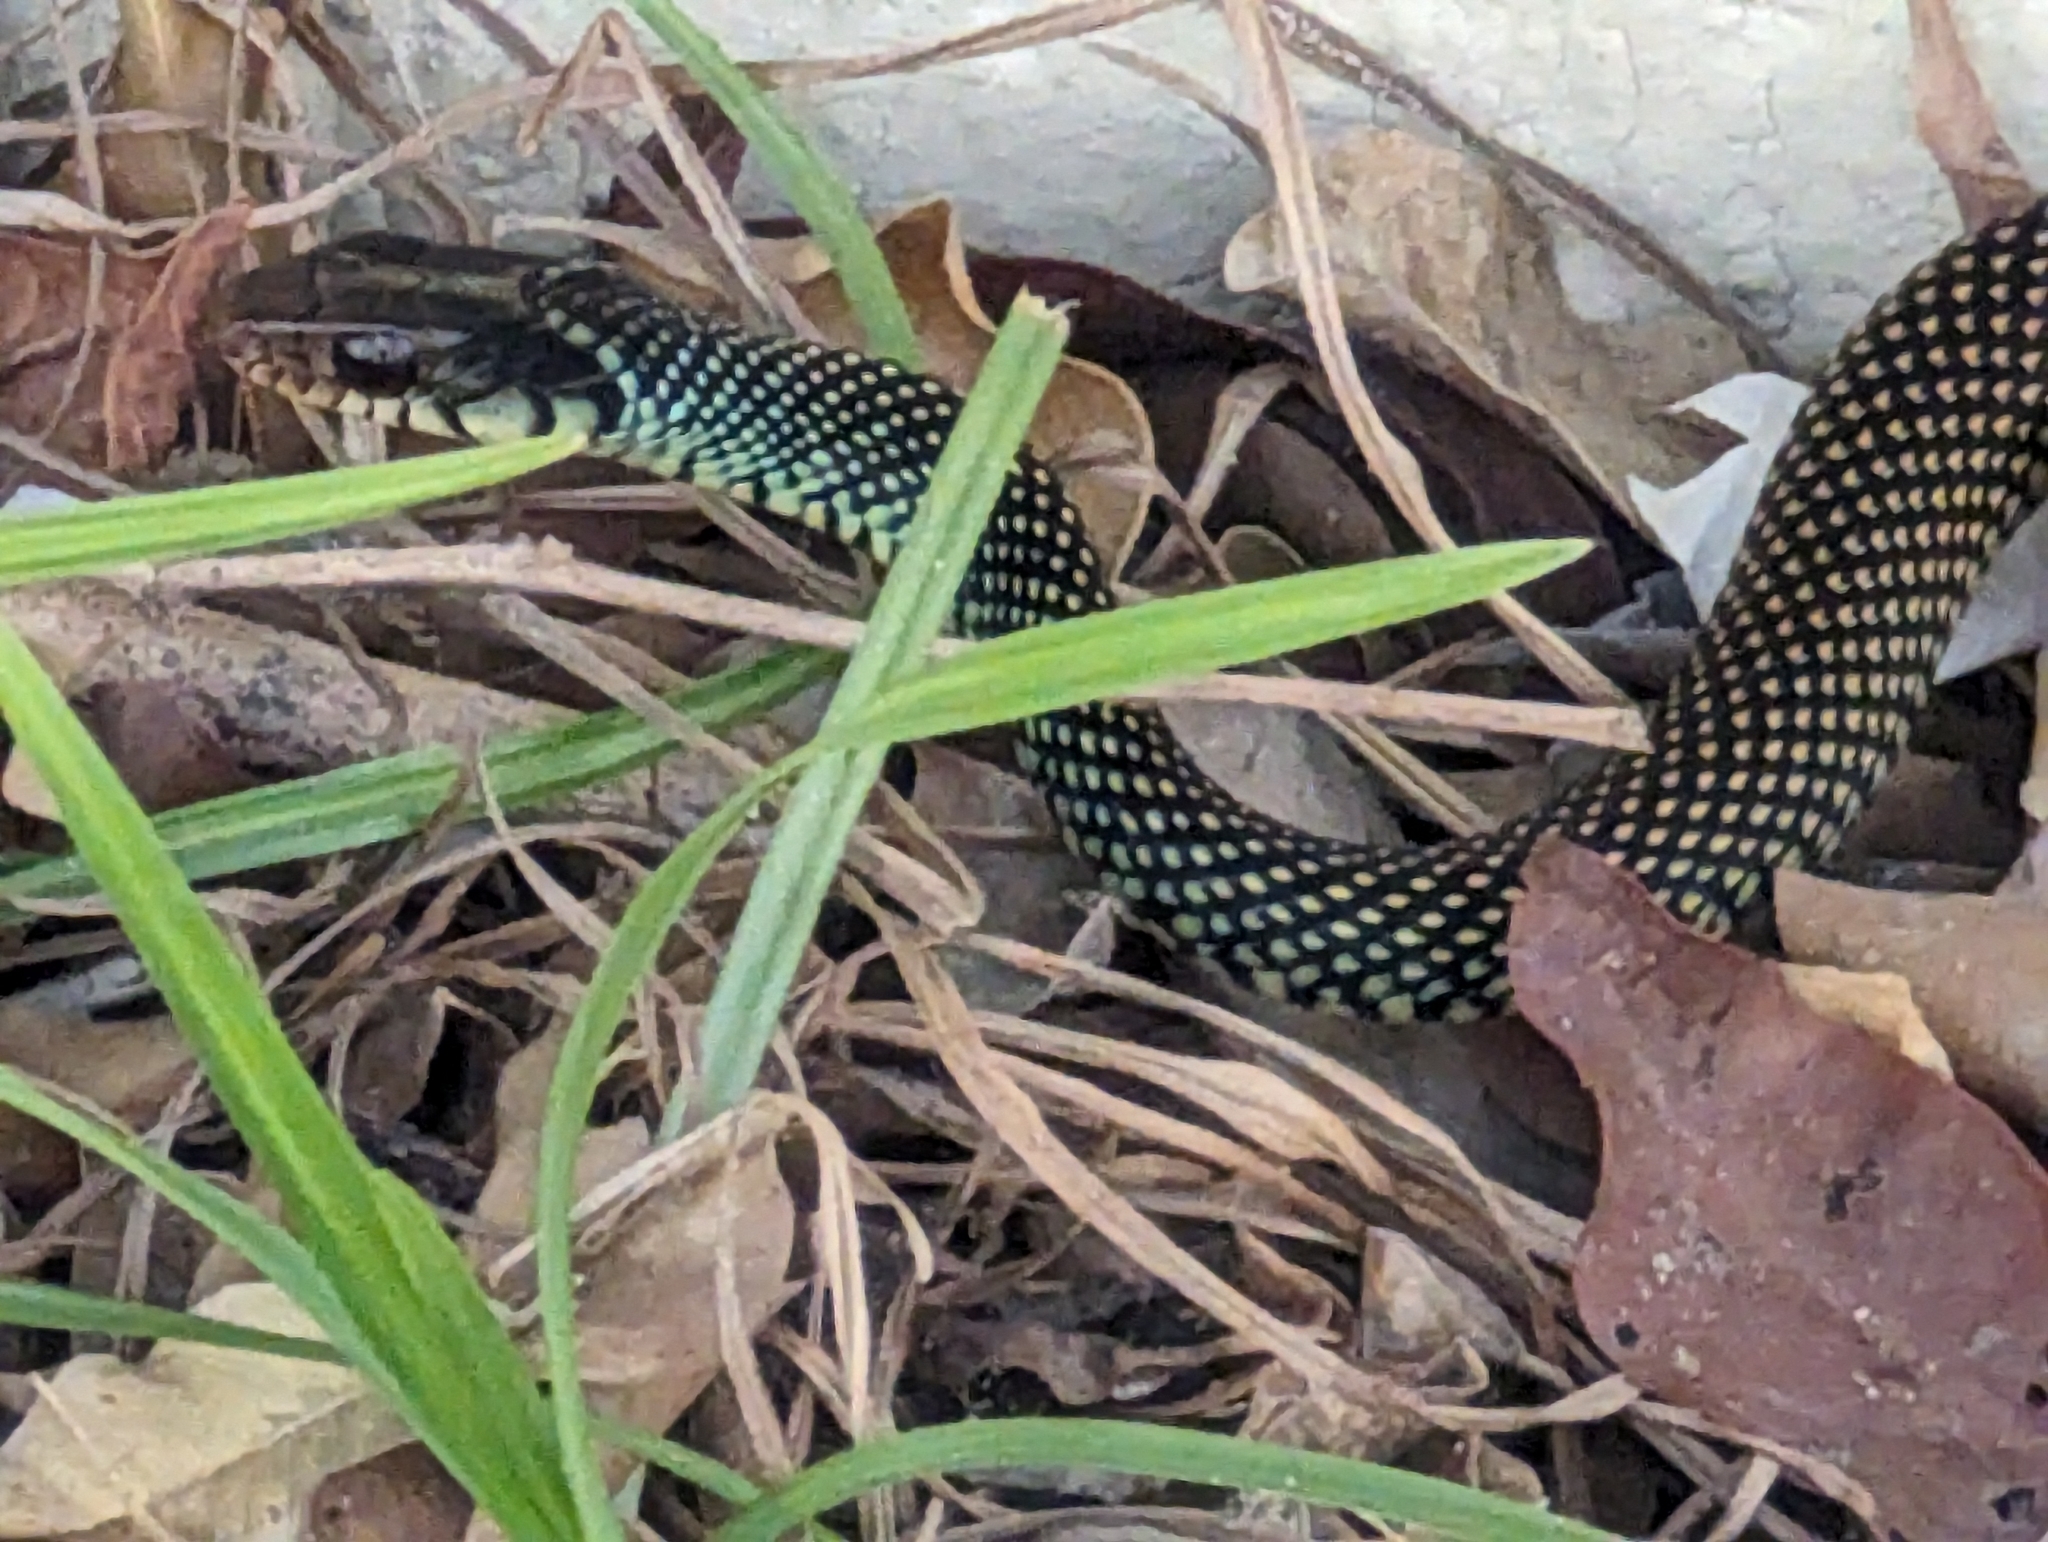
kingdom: Animalia
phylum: Chordata
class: Squamata
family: Colubridae
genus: Drymobius
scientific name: Drymobius margaritiferus
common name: Central american speckled racer
